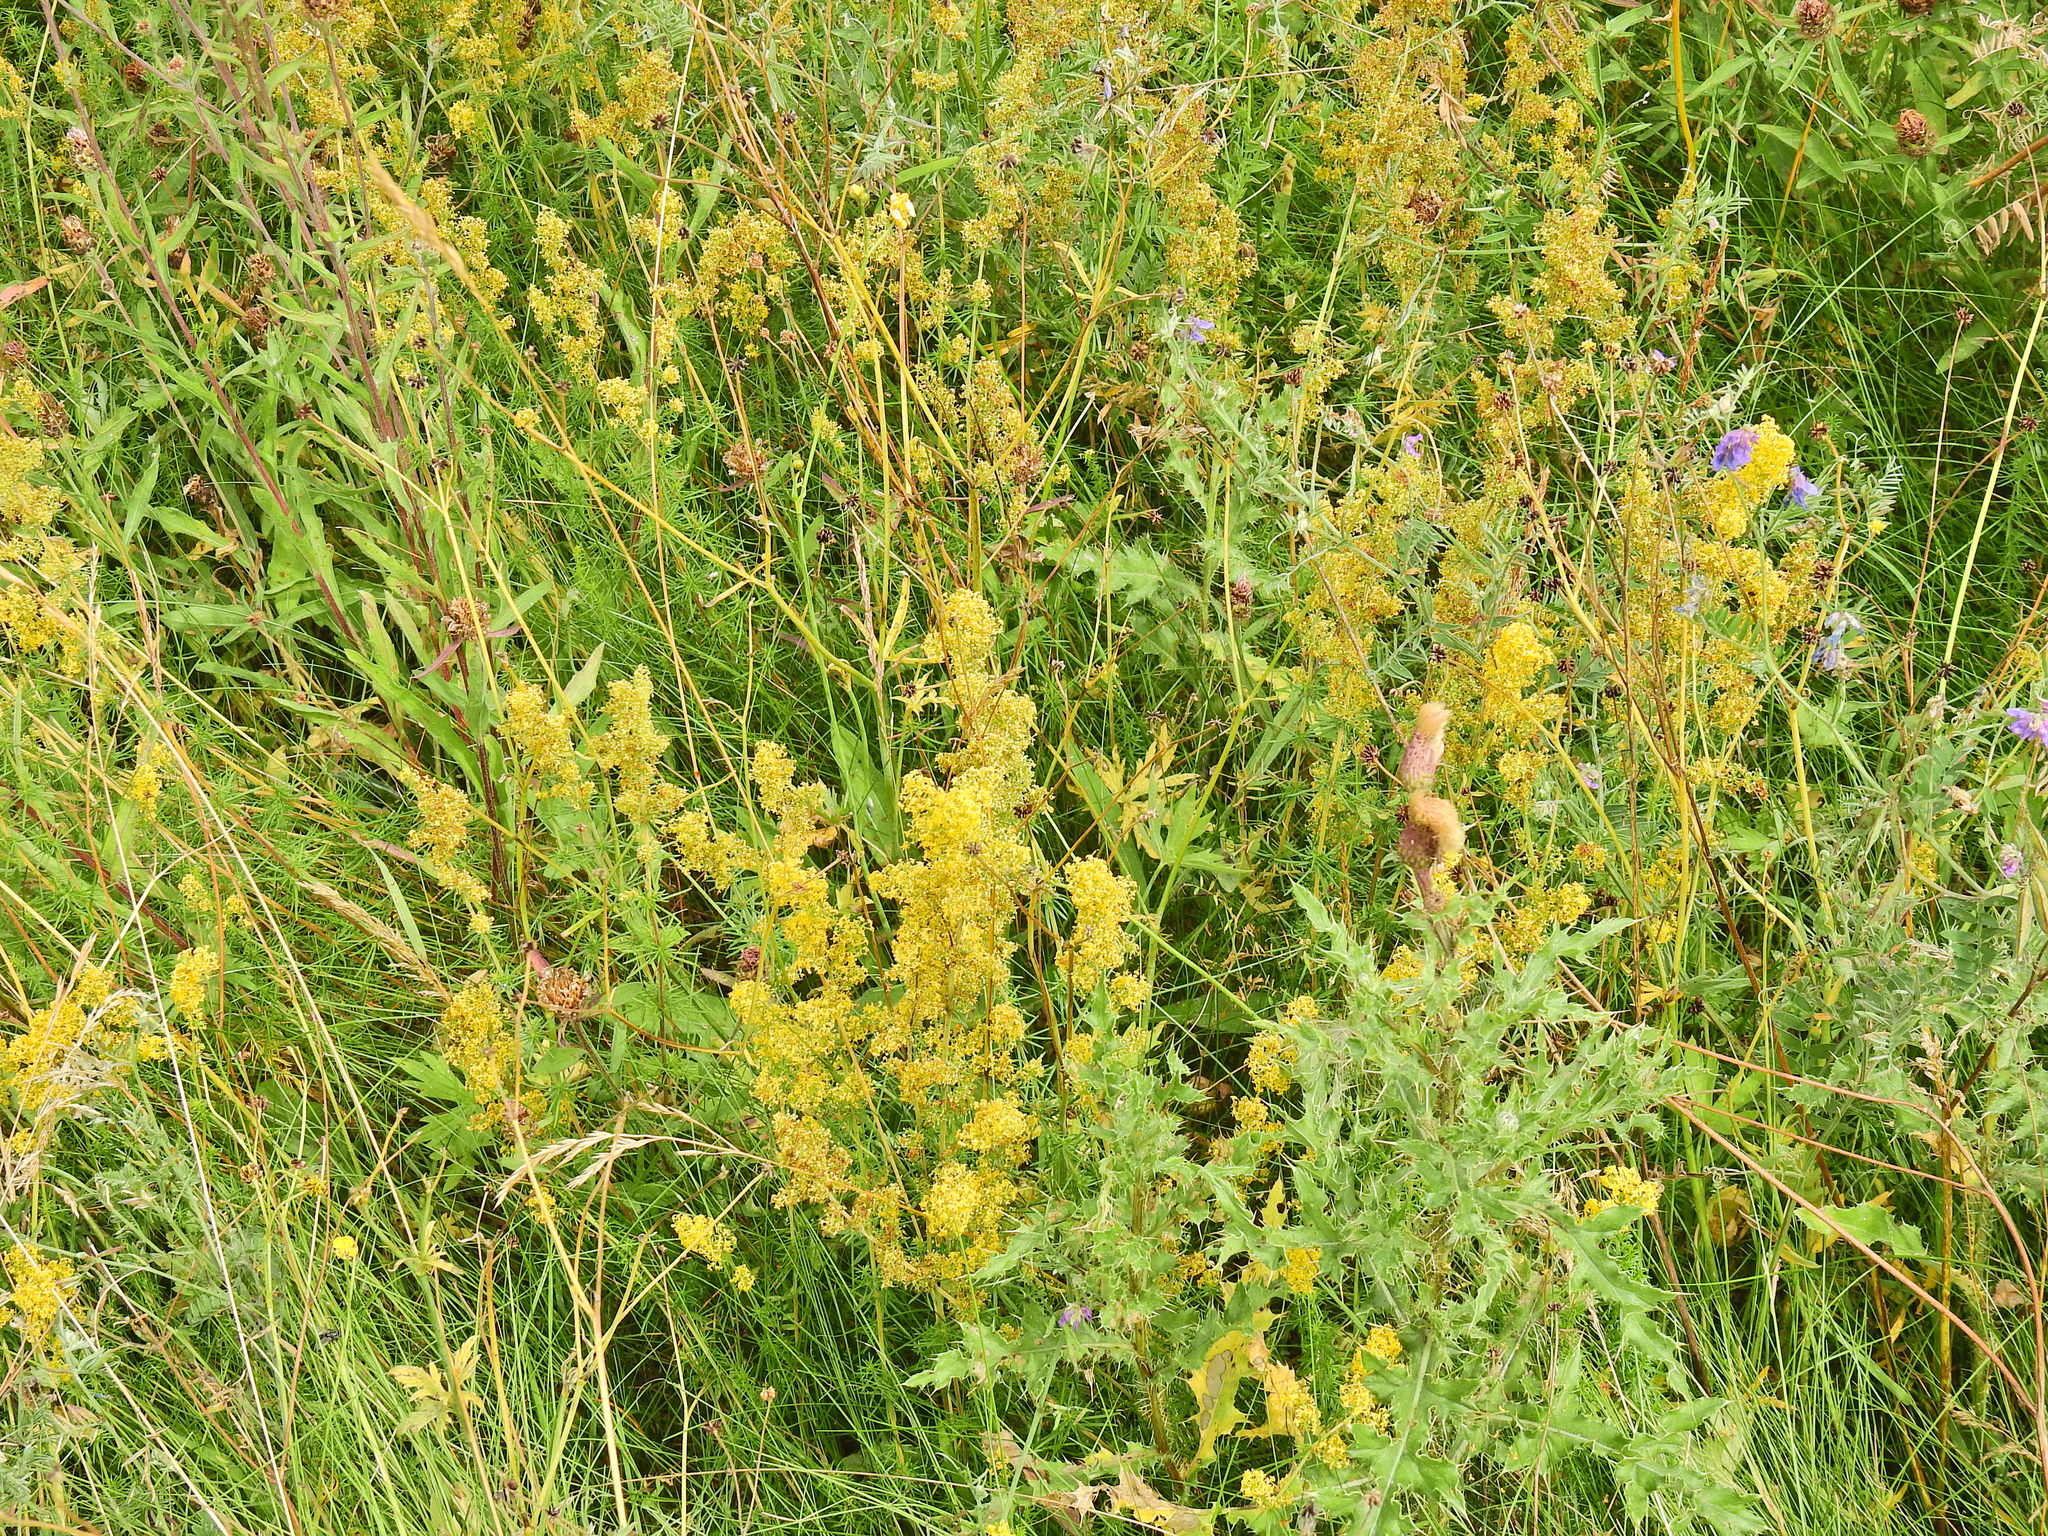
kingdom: Plantae
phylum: Tracheophyta
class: Magnoliopsida
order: Gentianales
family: Rubiaceae
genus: Galium
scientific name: Galium verum
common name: Lady's bedstraw
